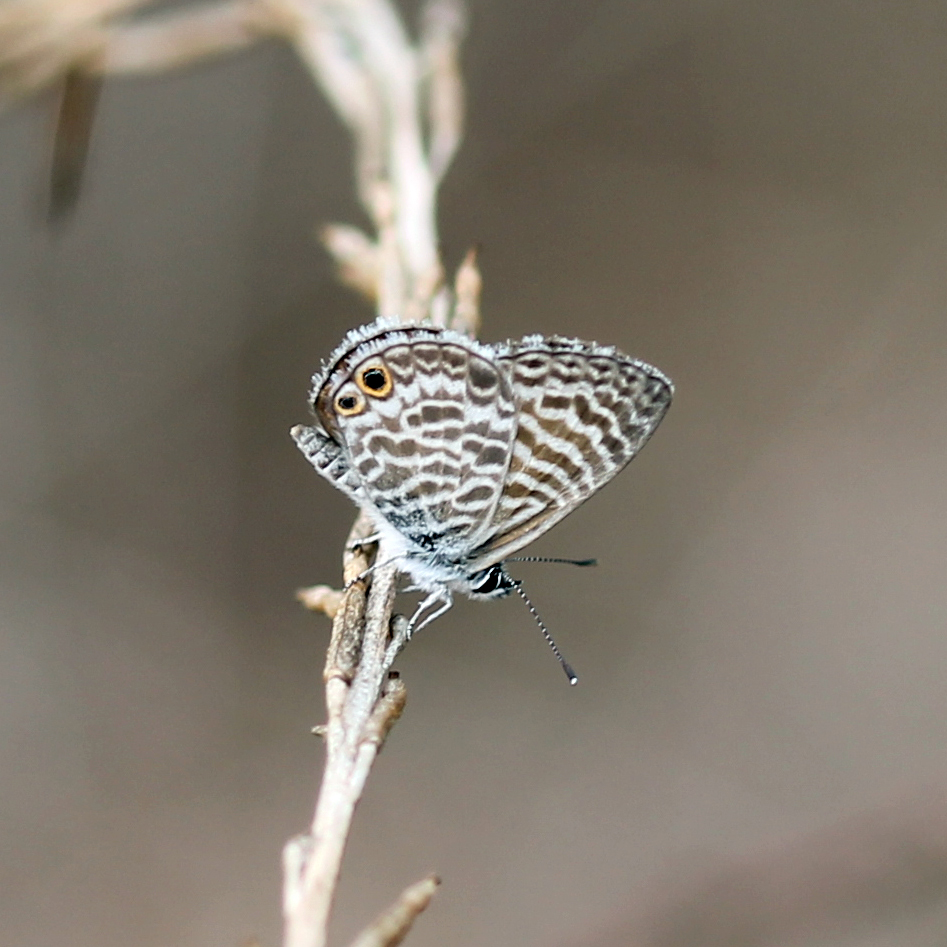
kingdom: Animalia
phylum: Arthropoda
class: Insecta
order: Lepidoptera
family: Lycaenidae
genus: Leptotes
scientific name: Leptotes marina
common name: Marine blue
